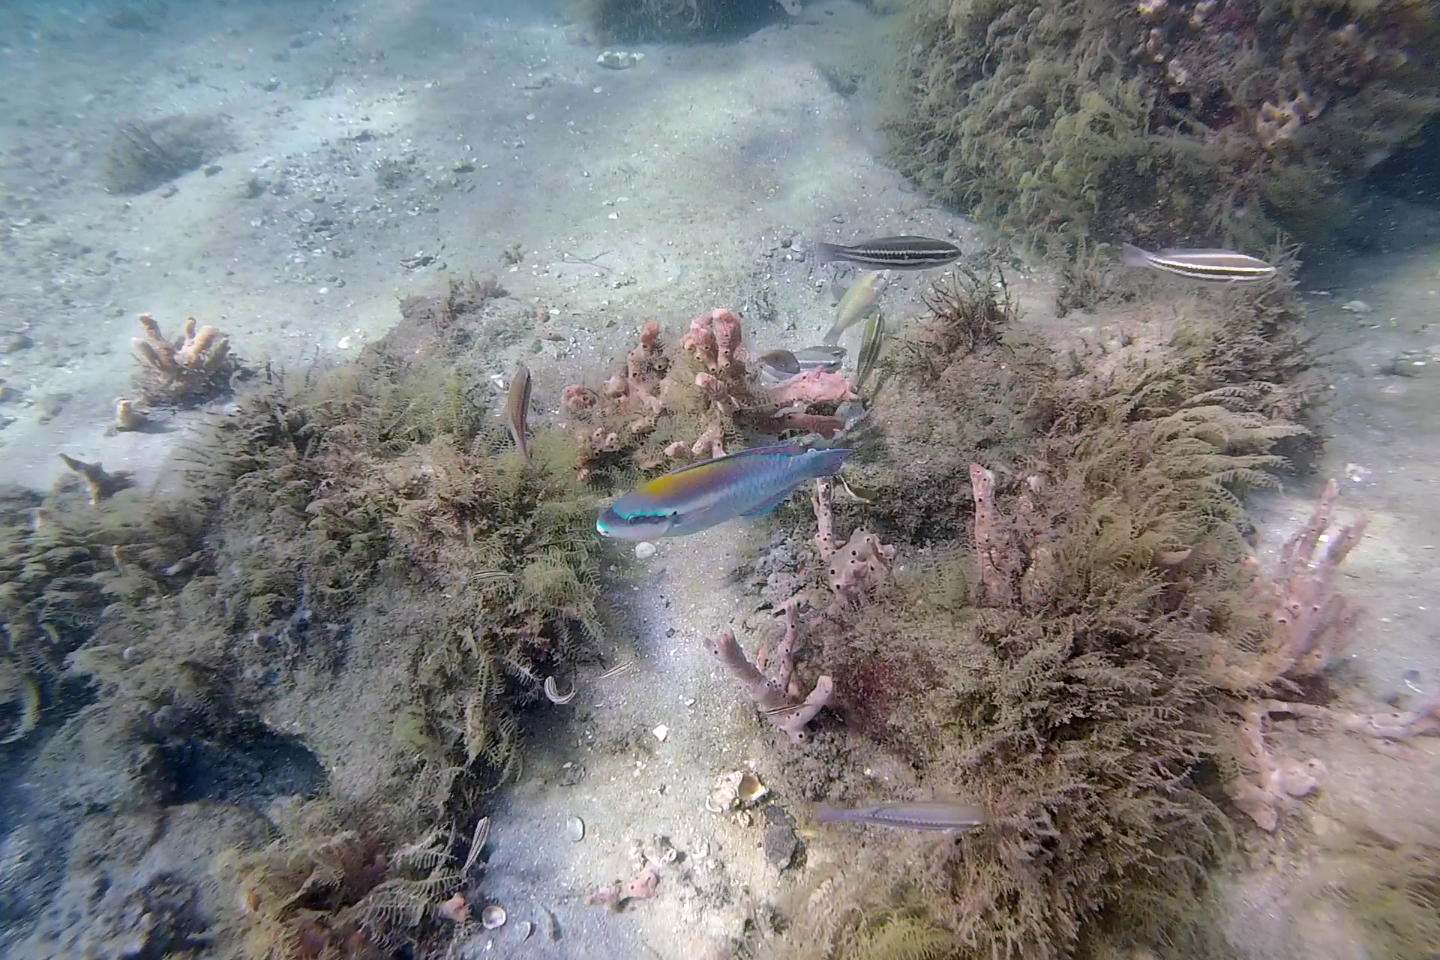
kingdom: Animalia
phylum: Chordata
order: Perciformes
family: Scaridae
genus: Scarus
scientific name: Scarus iseri
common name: Striped parrotfish
